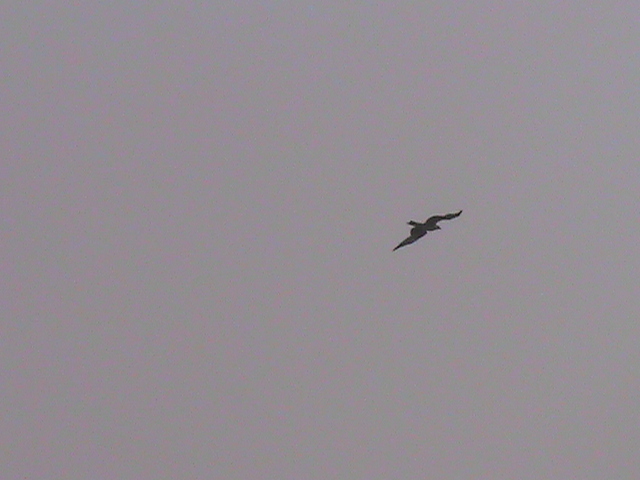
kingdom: Animalia
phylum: Chordata
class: Aves
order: Accipitriformes
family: Accipitridae
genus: Milvus
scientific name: Milvus migrans
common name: Black kite
